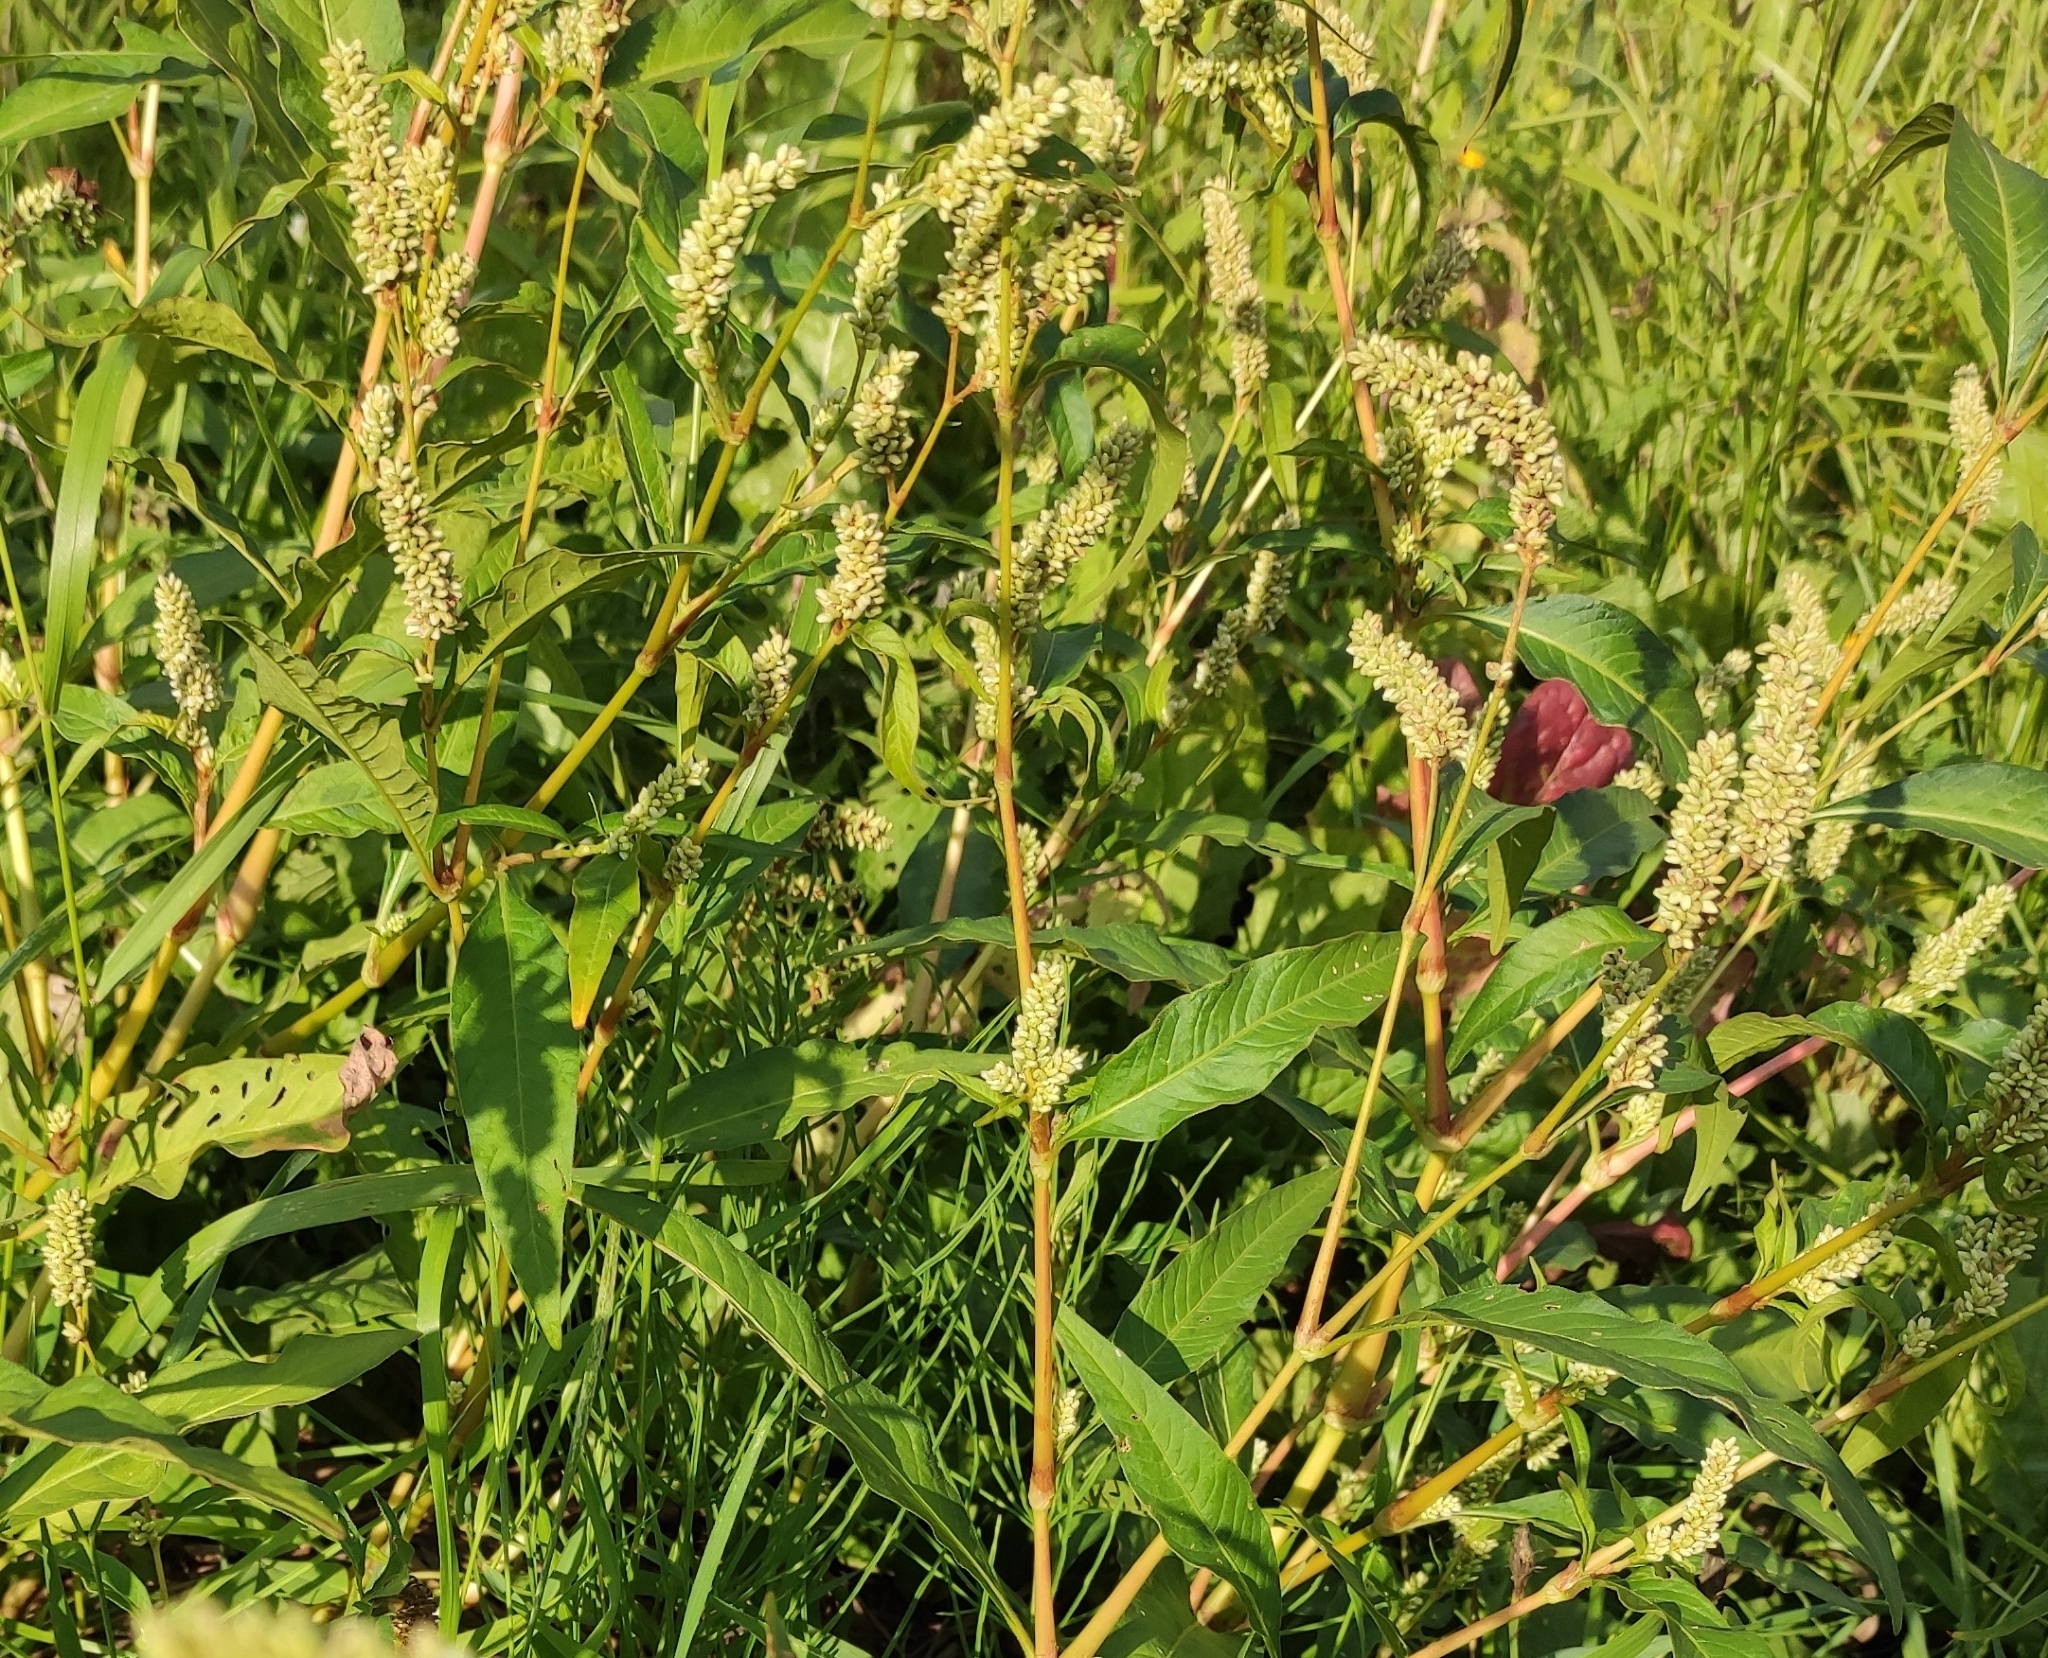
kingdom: Plantae
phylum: Tracheophyta
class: Magnoliopsida
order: Caryophyllales
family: Polygonaceae
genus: Persicaria
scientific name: Persicaria lapathifolia
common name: Curlytop knotweed
